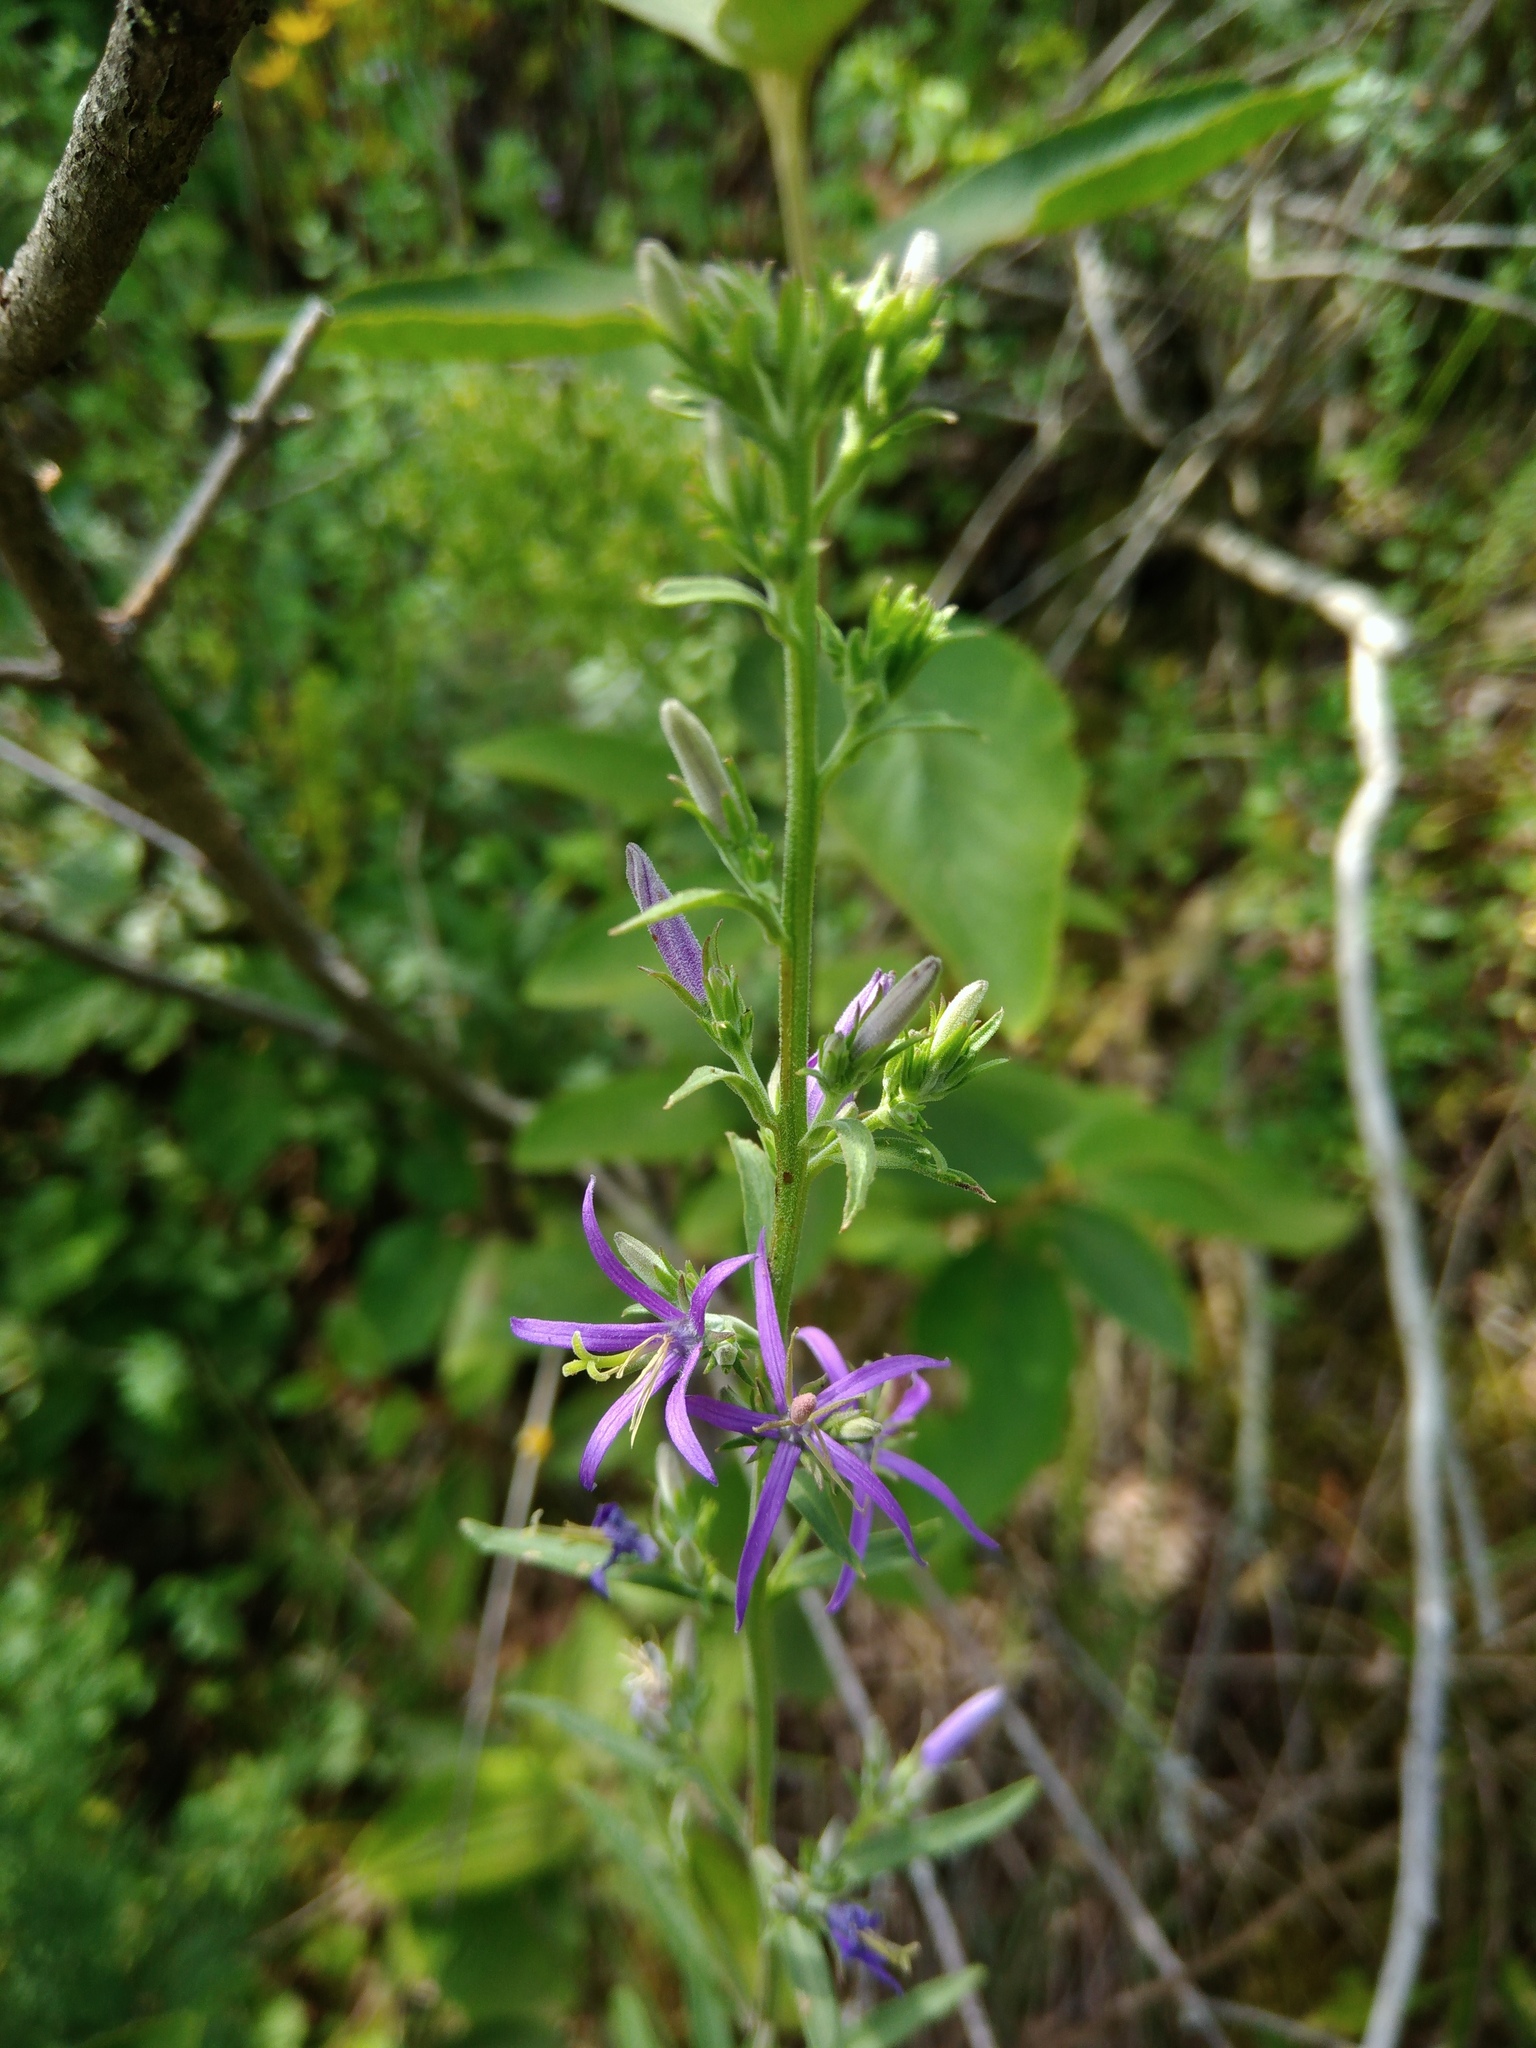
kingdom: Plantae
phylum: Tracheophyta
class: Magnoliopsida
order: Asterales
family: Campanulaceae
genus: Asyneuma
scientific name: Asyneuma canescens
